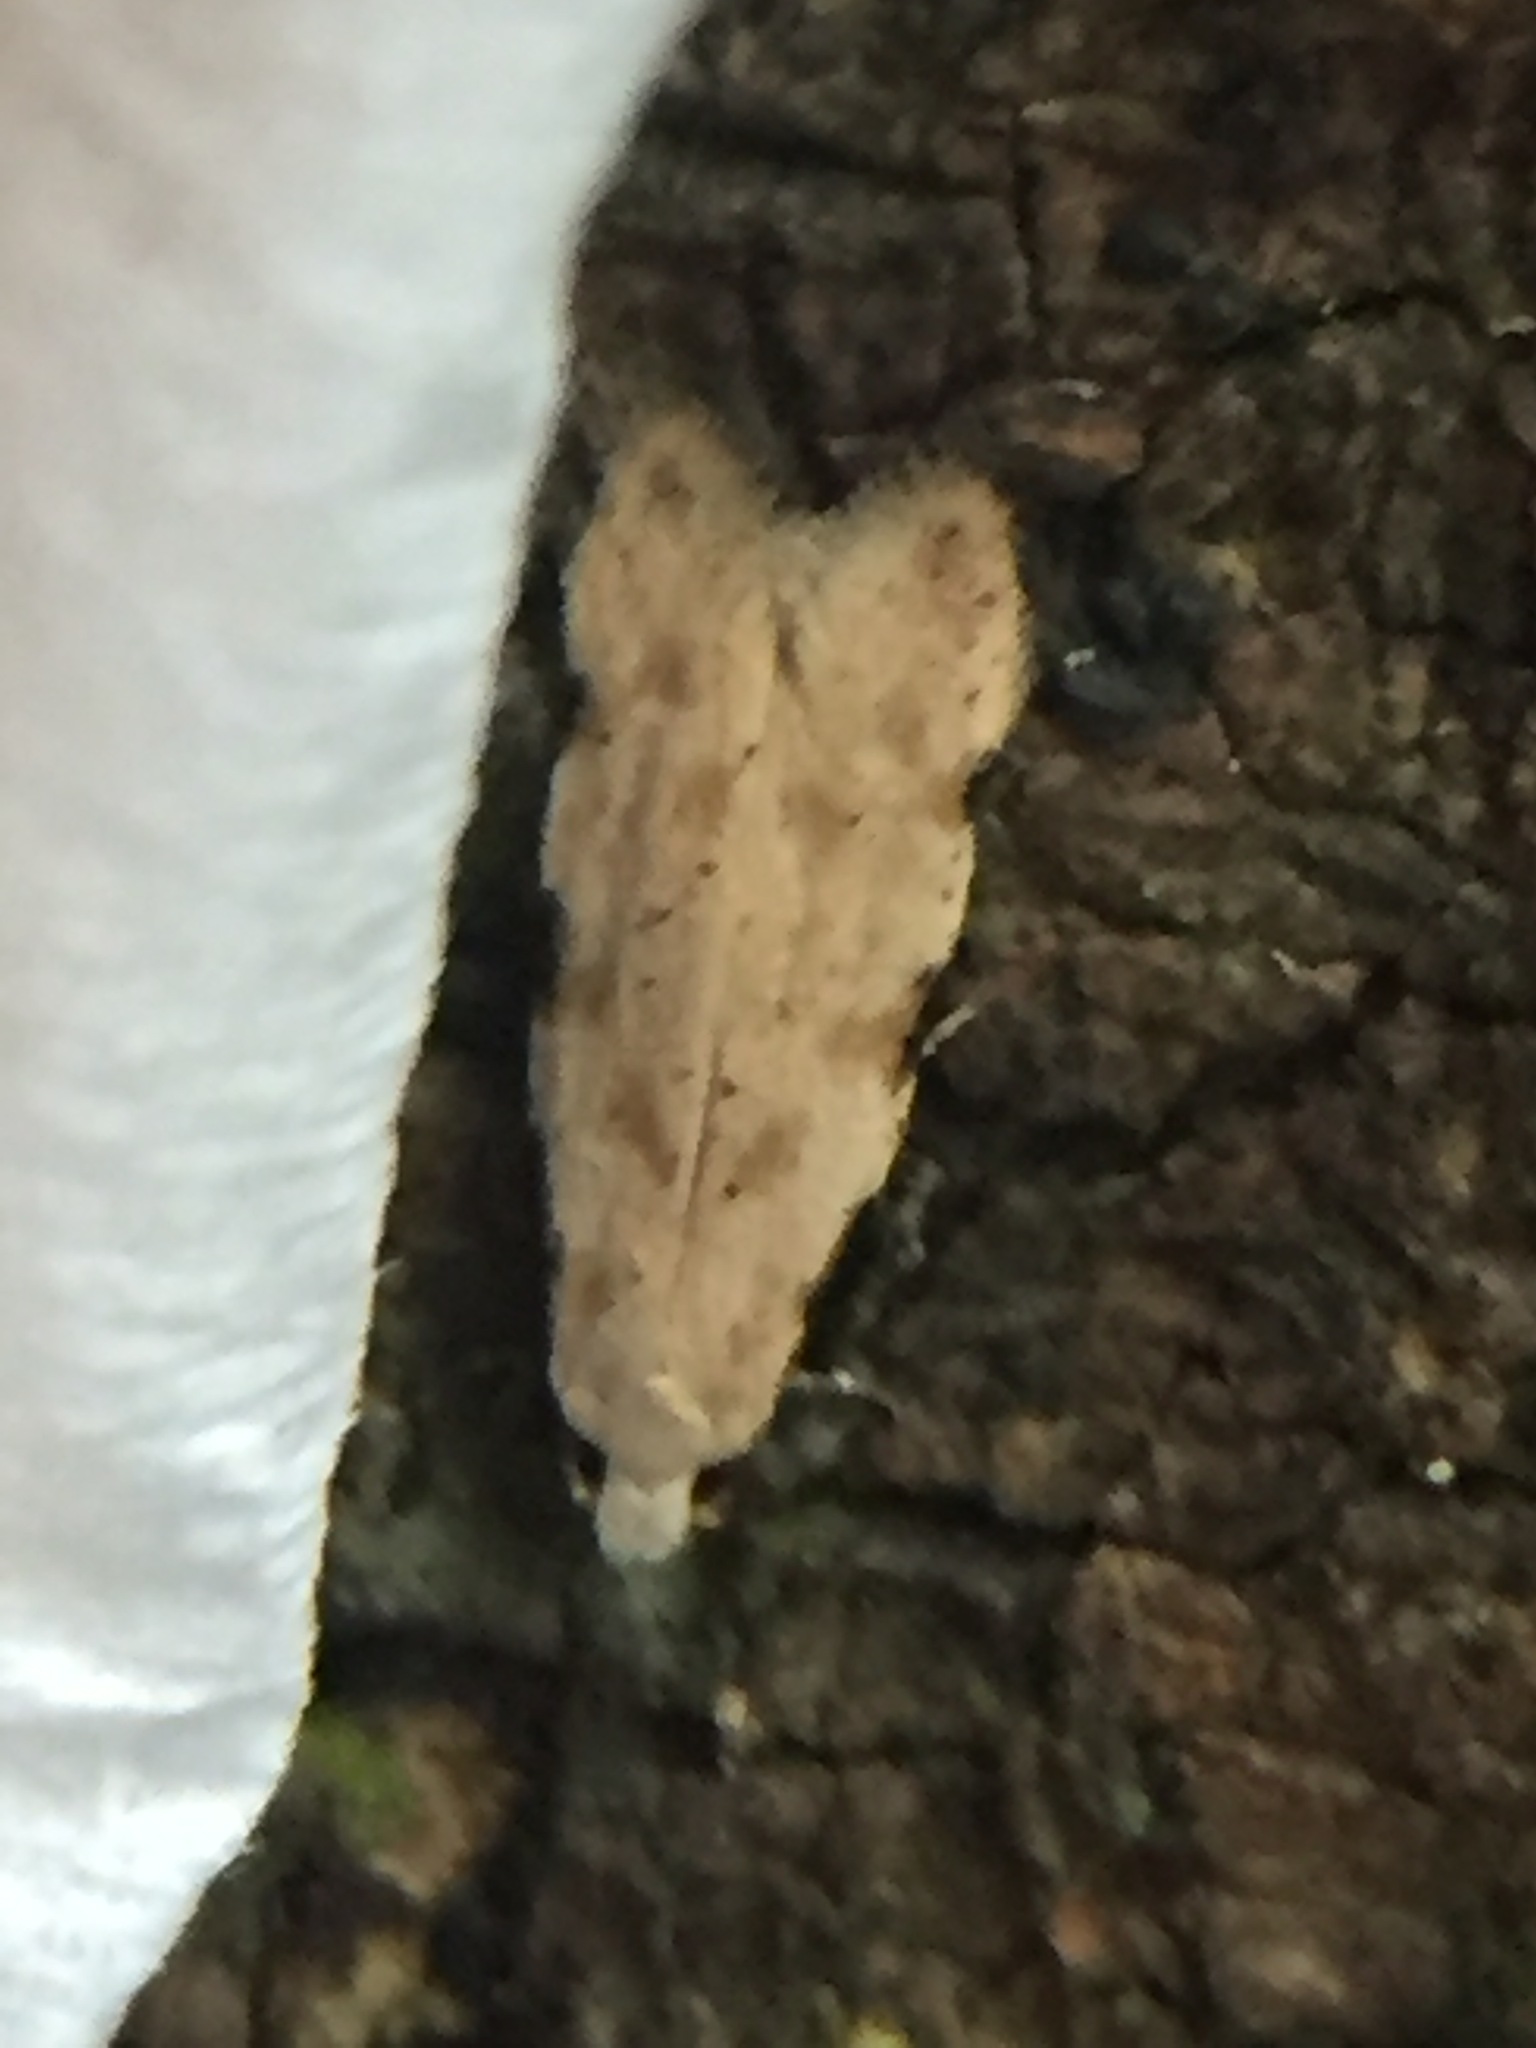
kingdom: Animalia
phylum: Arthropoda
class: Insecta
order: Lepidoptera
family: Tineidae
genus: Endophthora
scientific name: Endophthora omogramma
